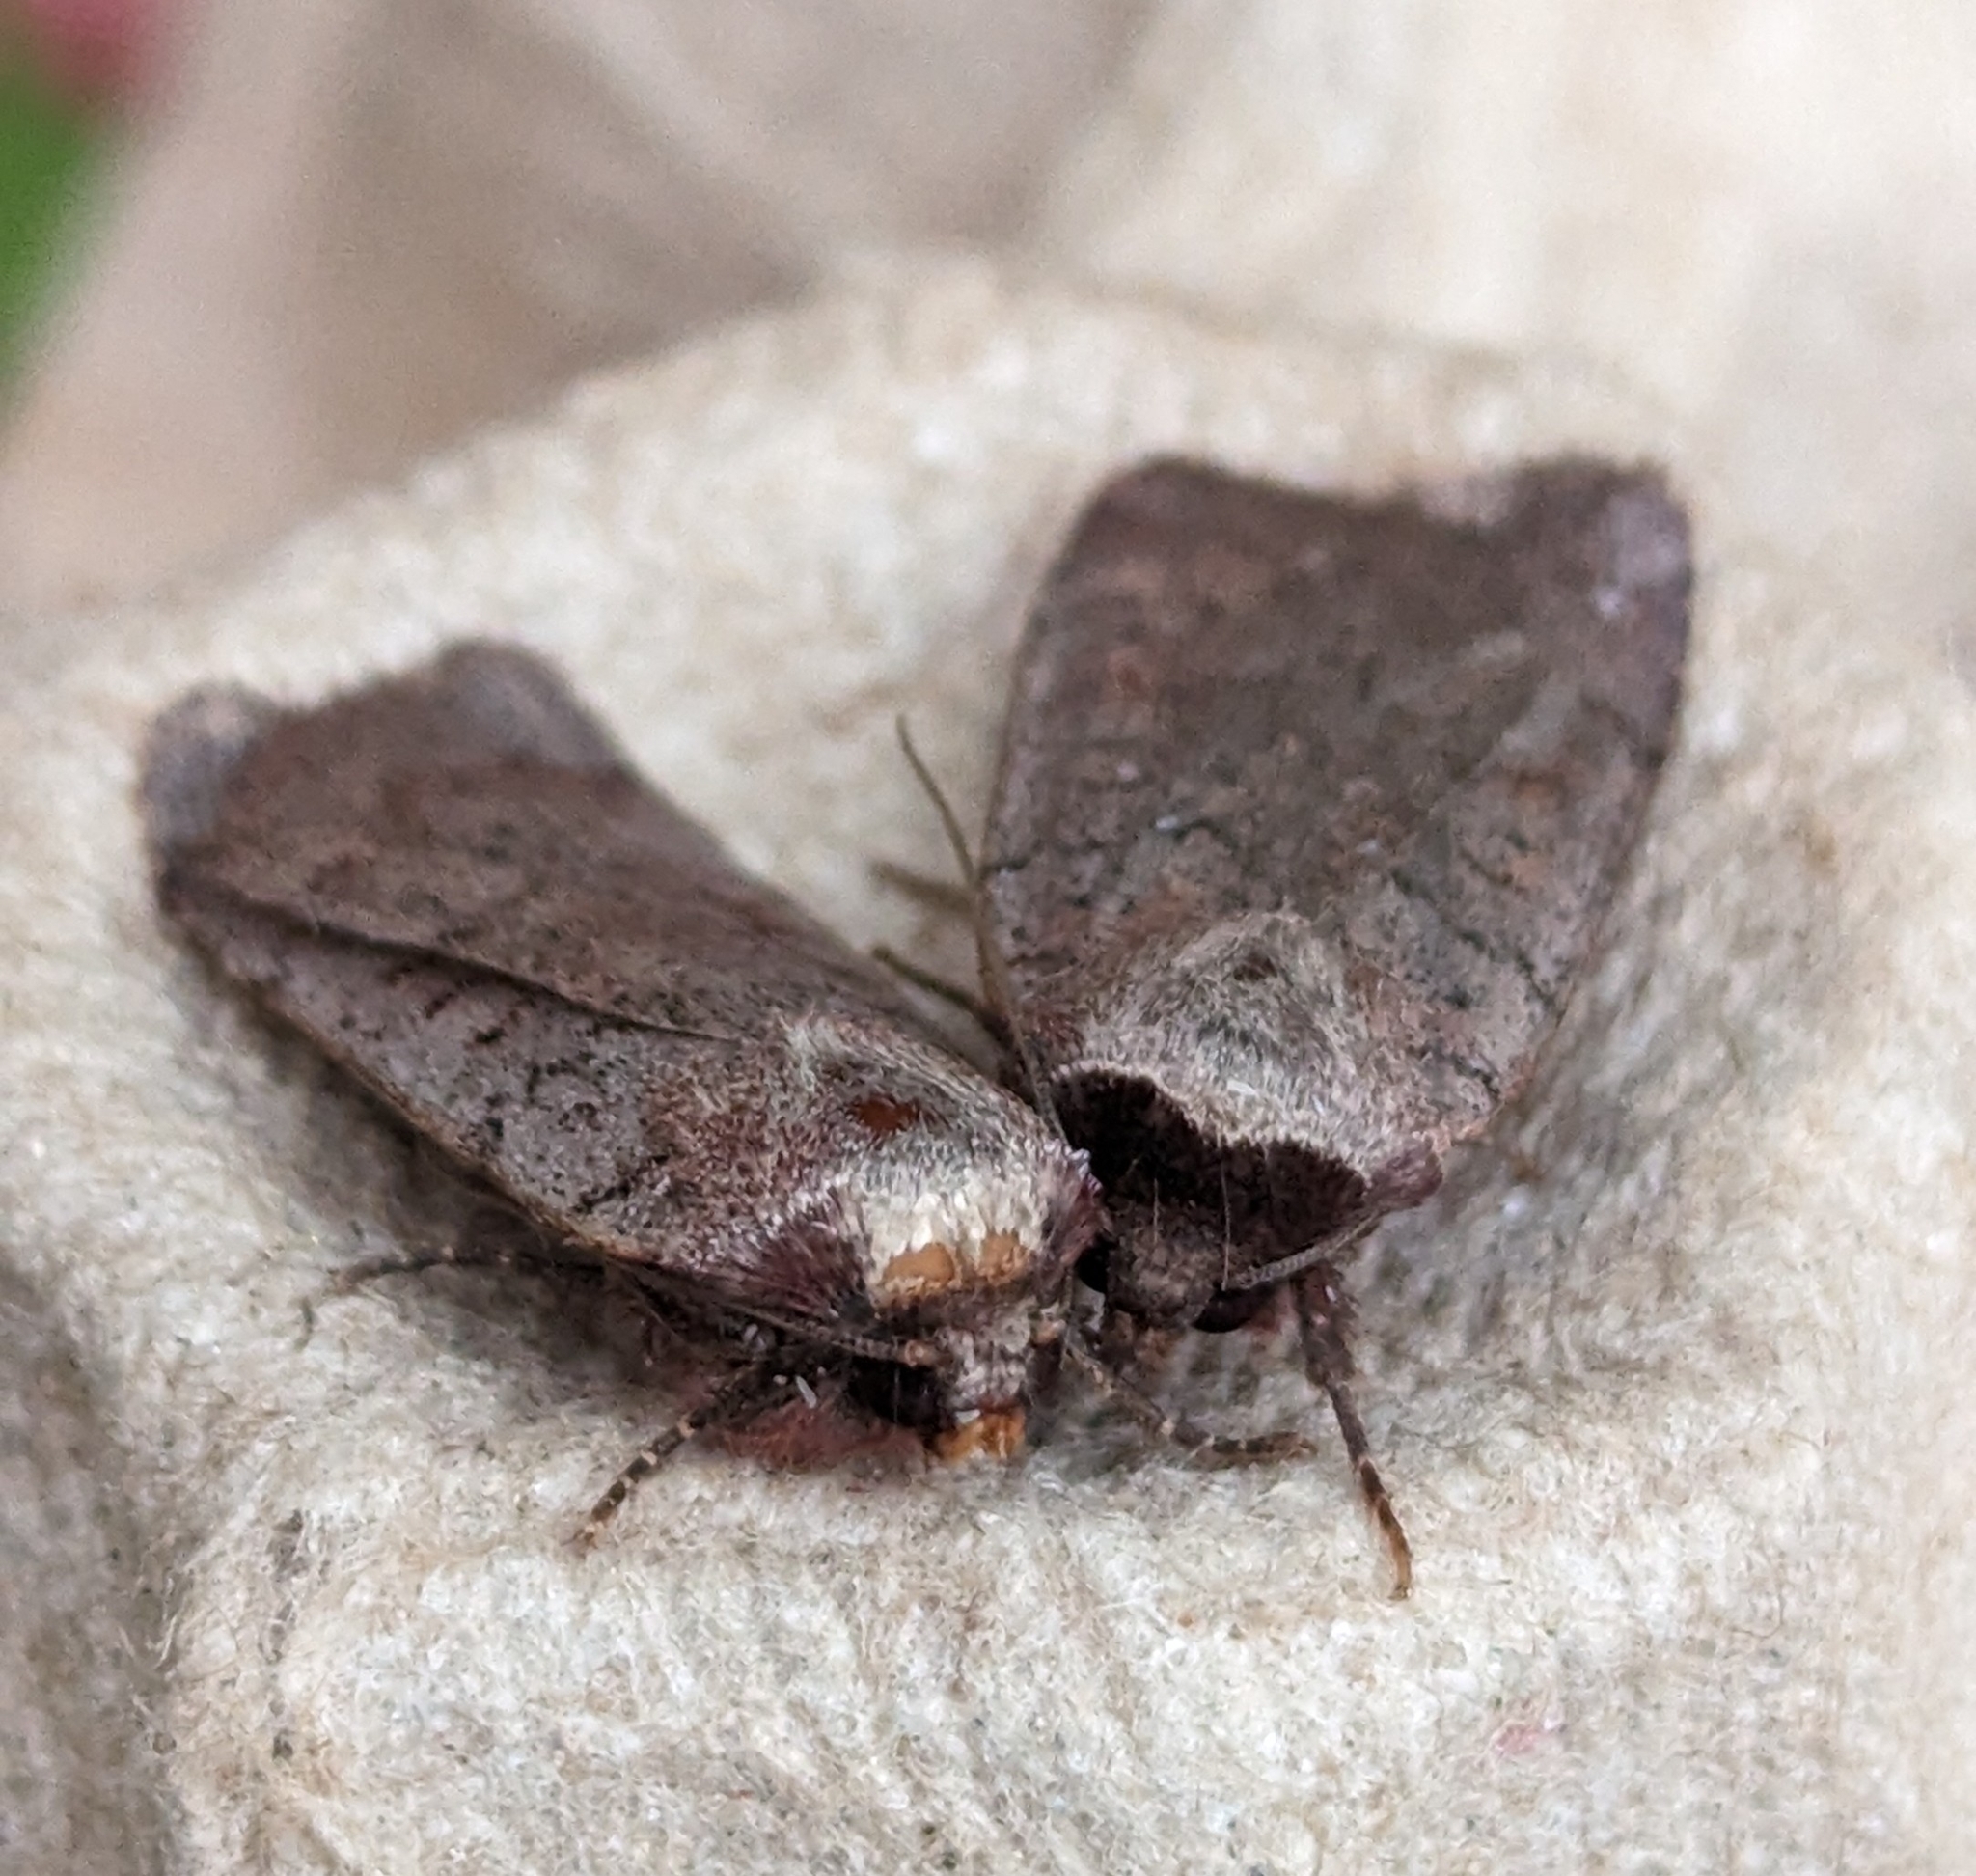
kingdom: Animalia
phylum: Arthropoda
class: Insecta
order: Lepidoptera
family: Noctuidae
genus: Protolampra
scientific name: Protolampra rufipectus
